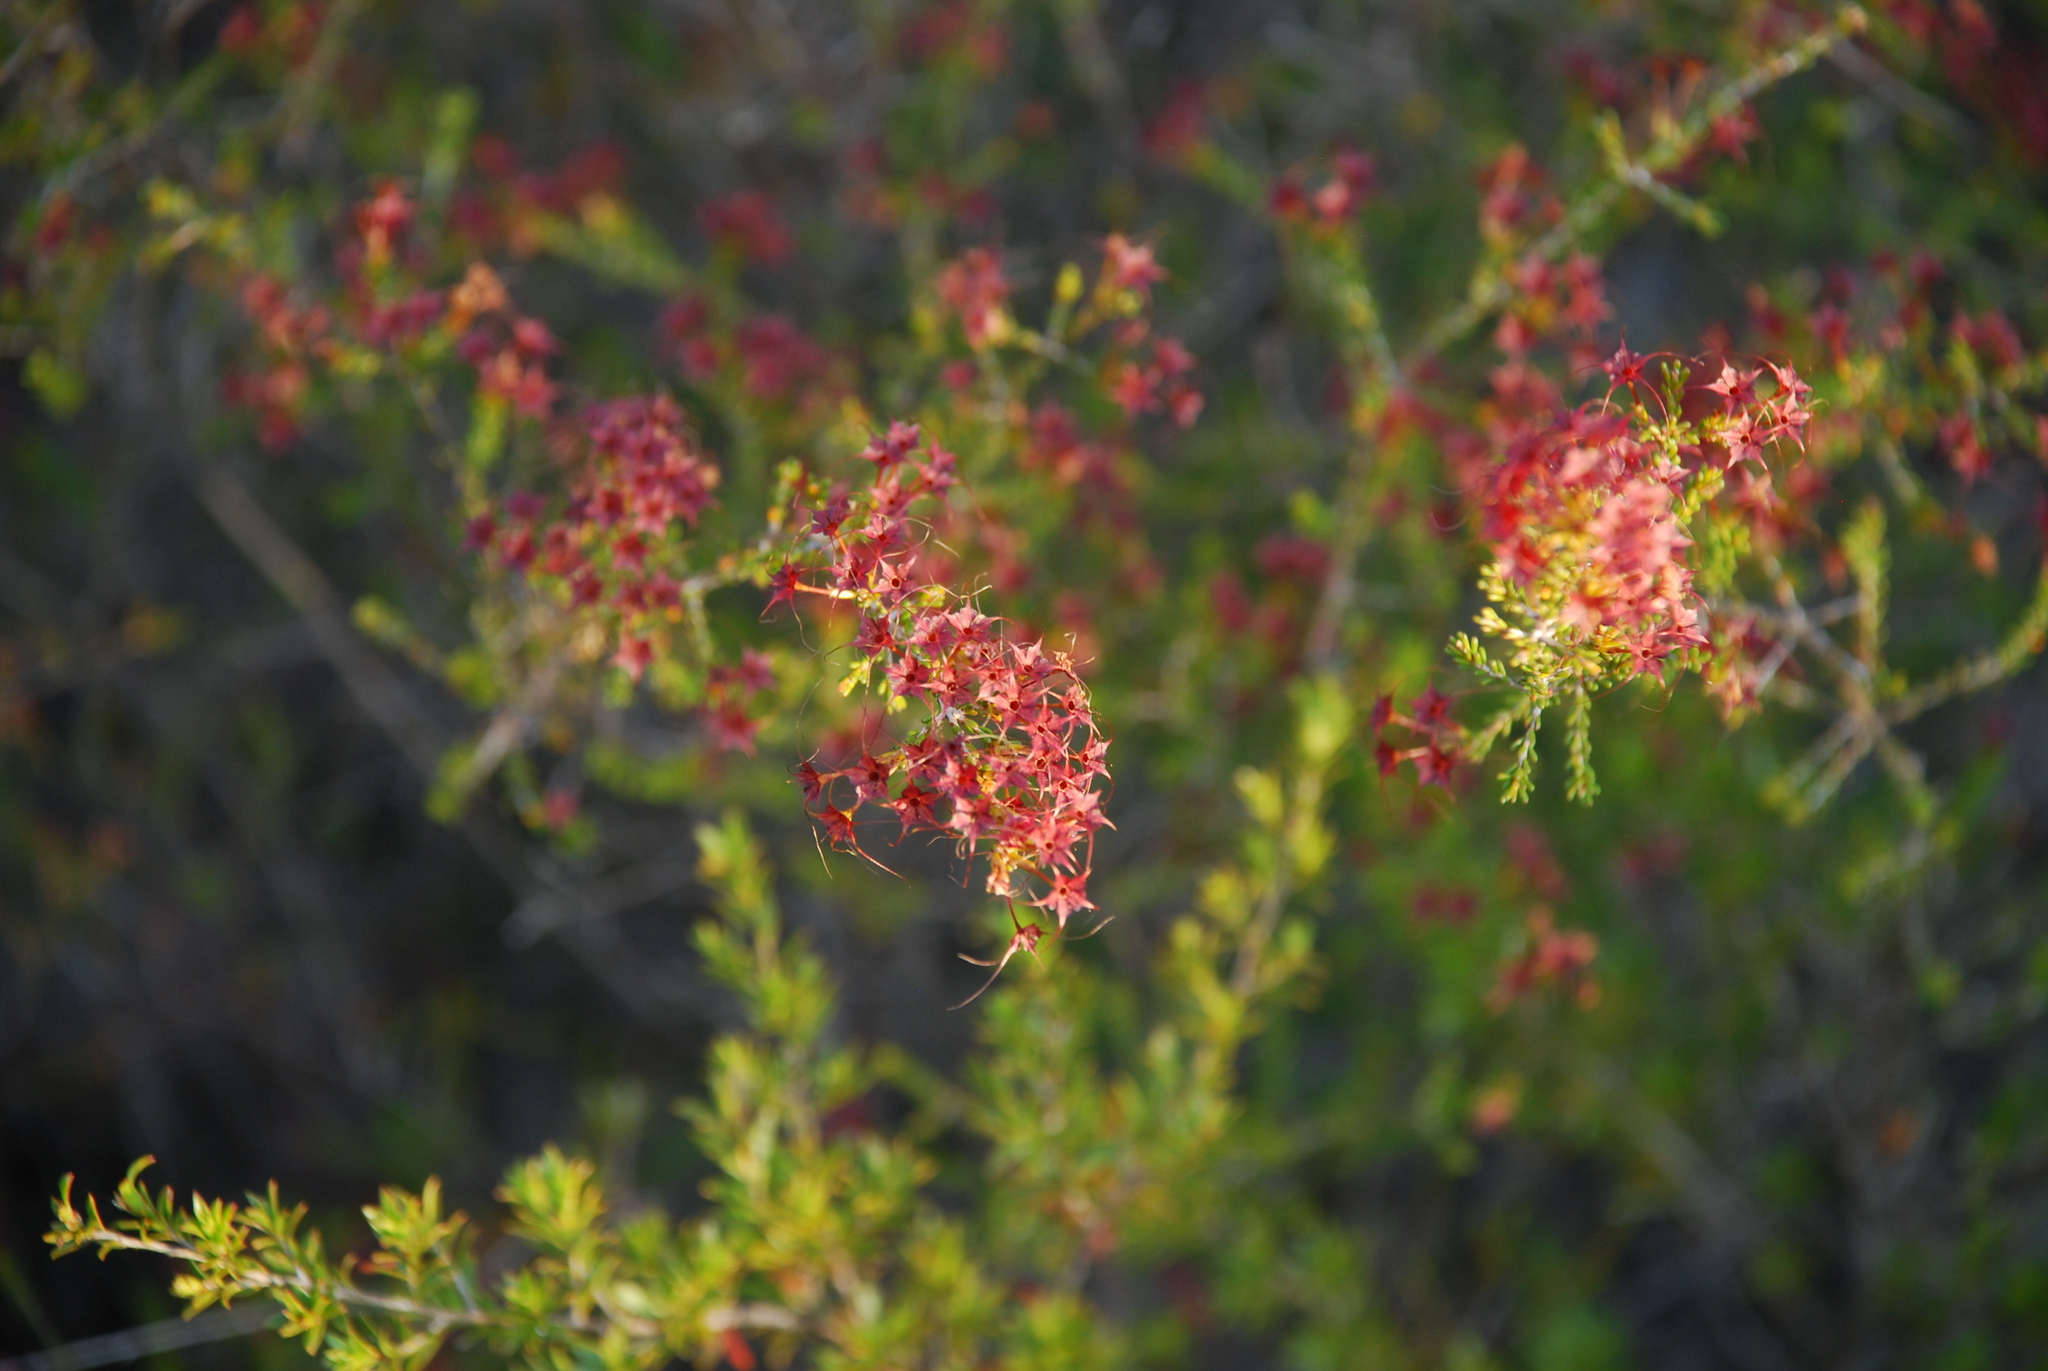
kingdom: Plantae
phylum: Tracheophyta
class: Magnoliopsida
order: Myrtales
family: Myrtaceae
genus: Calytrix
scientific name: Calytrix tetragona
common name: Common fringe myrtle
